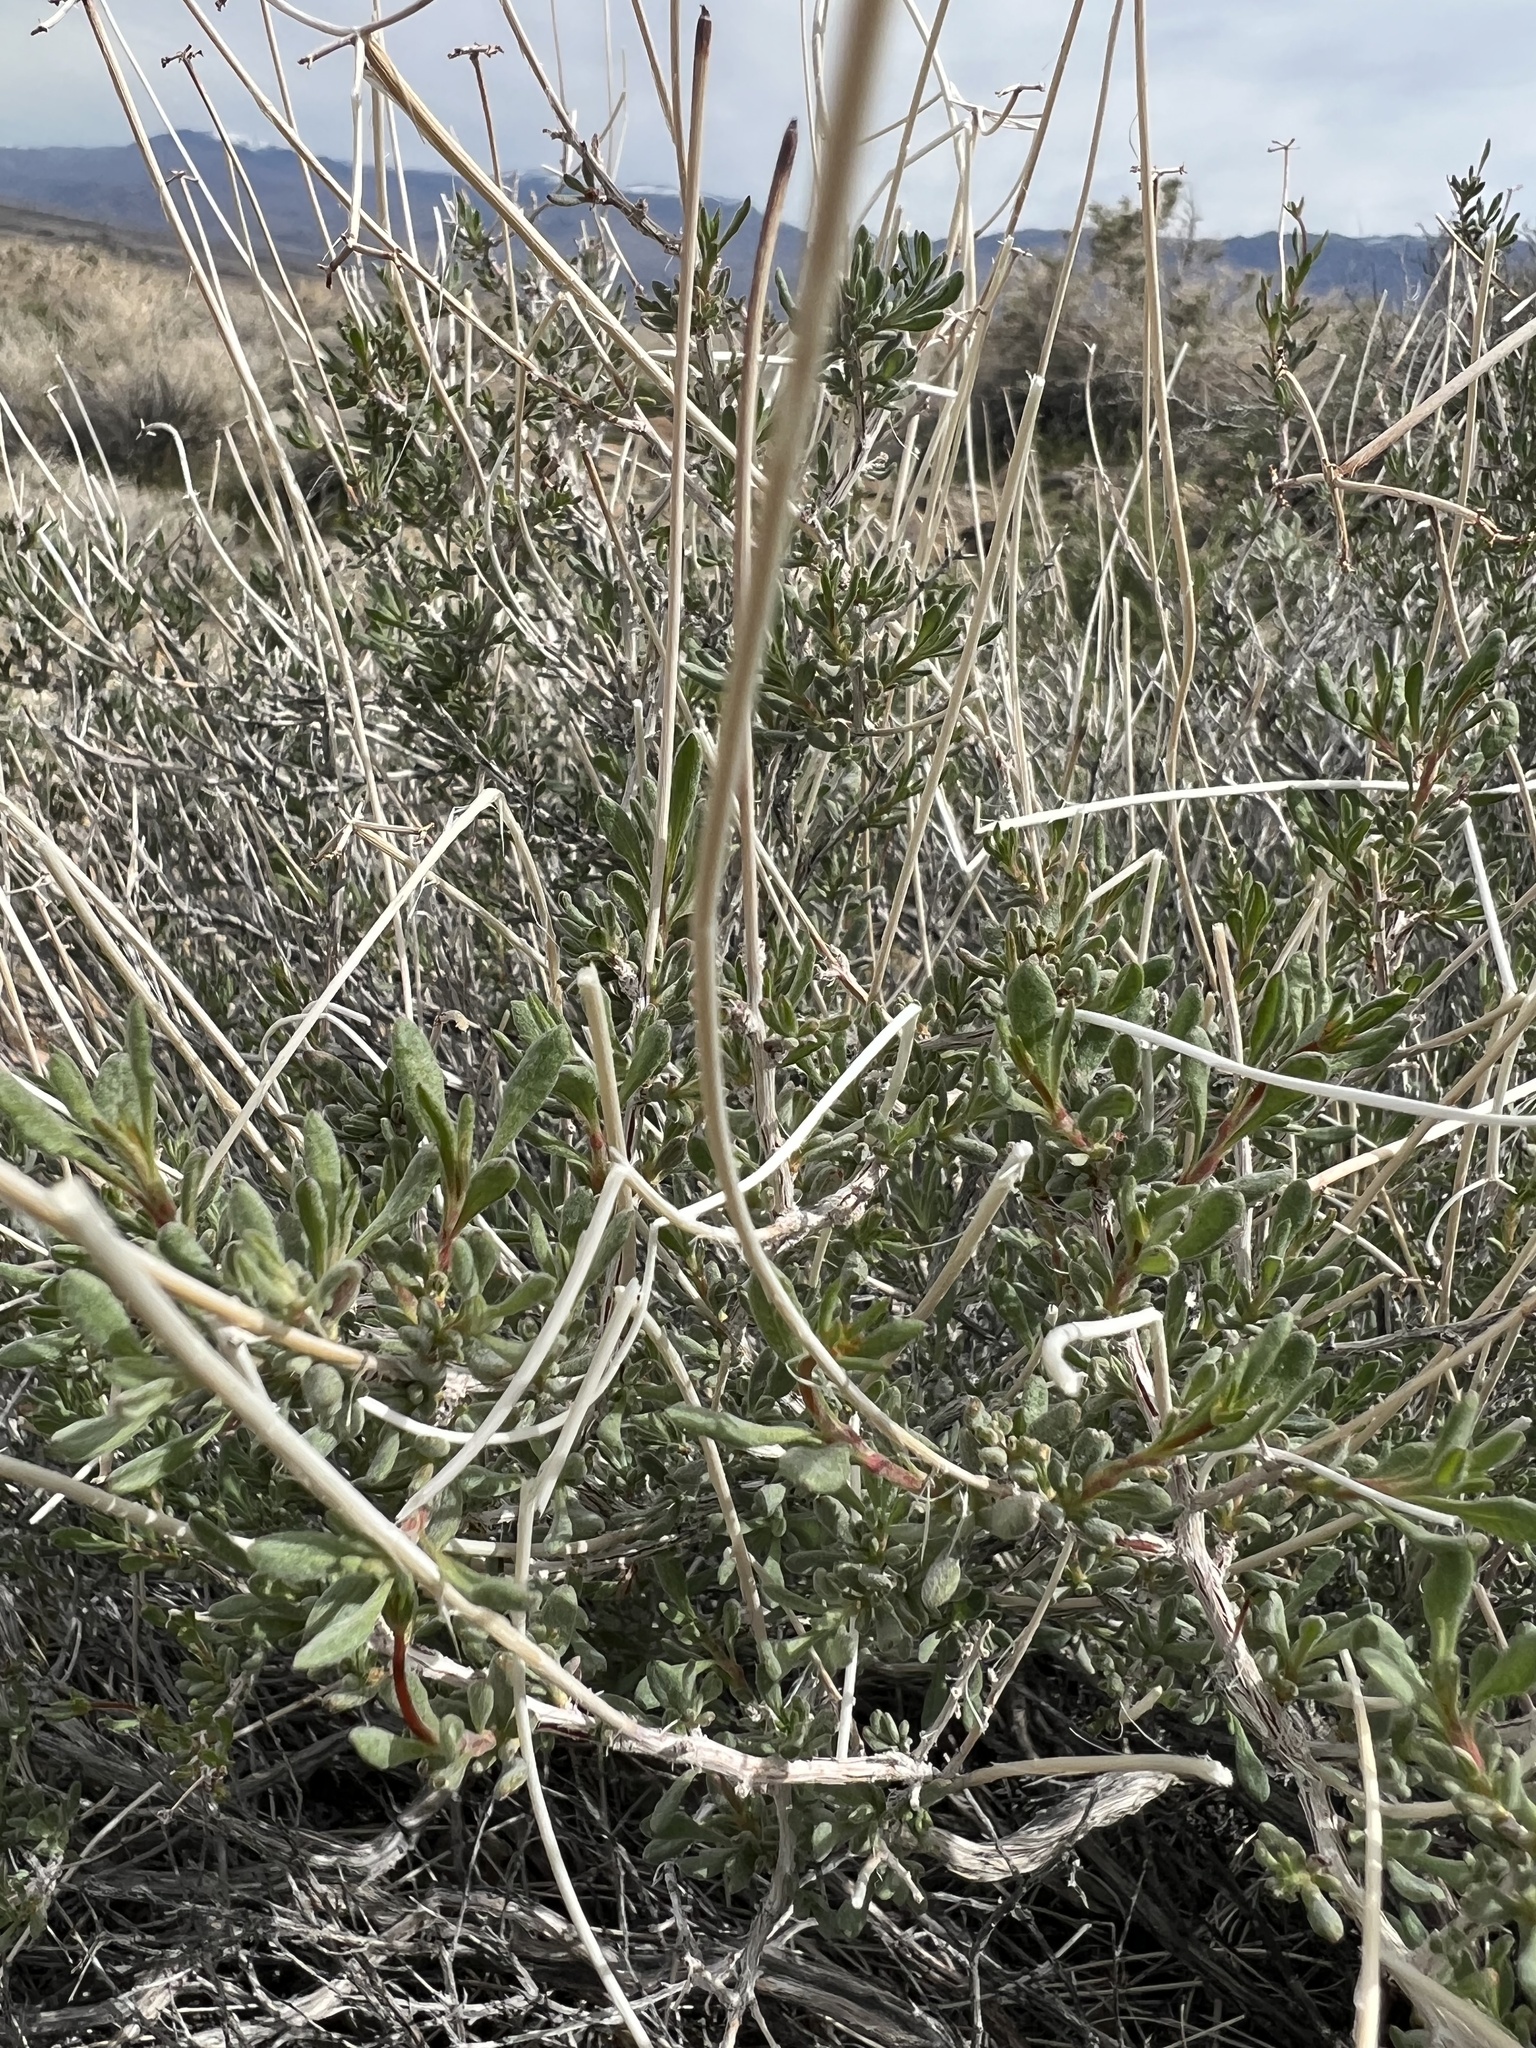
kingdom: Plantae
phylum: Tracheophyta
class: Magnoliopsida
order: Caryophyllales
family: Polygonaceae
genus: Eriogonum
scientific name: Eriogonum fasciculatum
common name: California wild buckwheat
